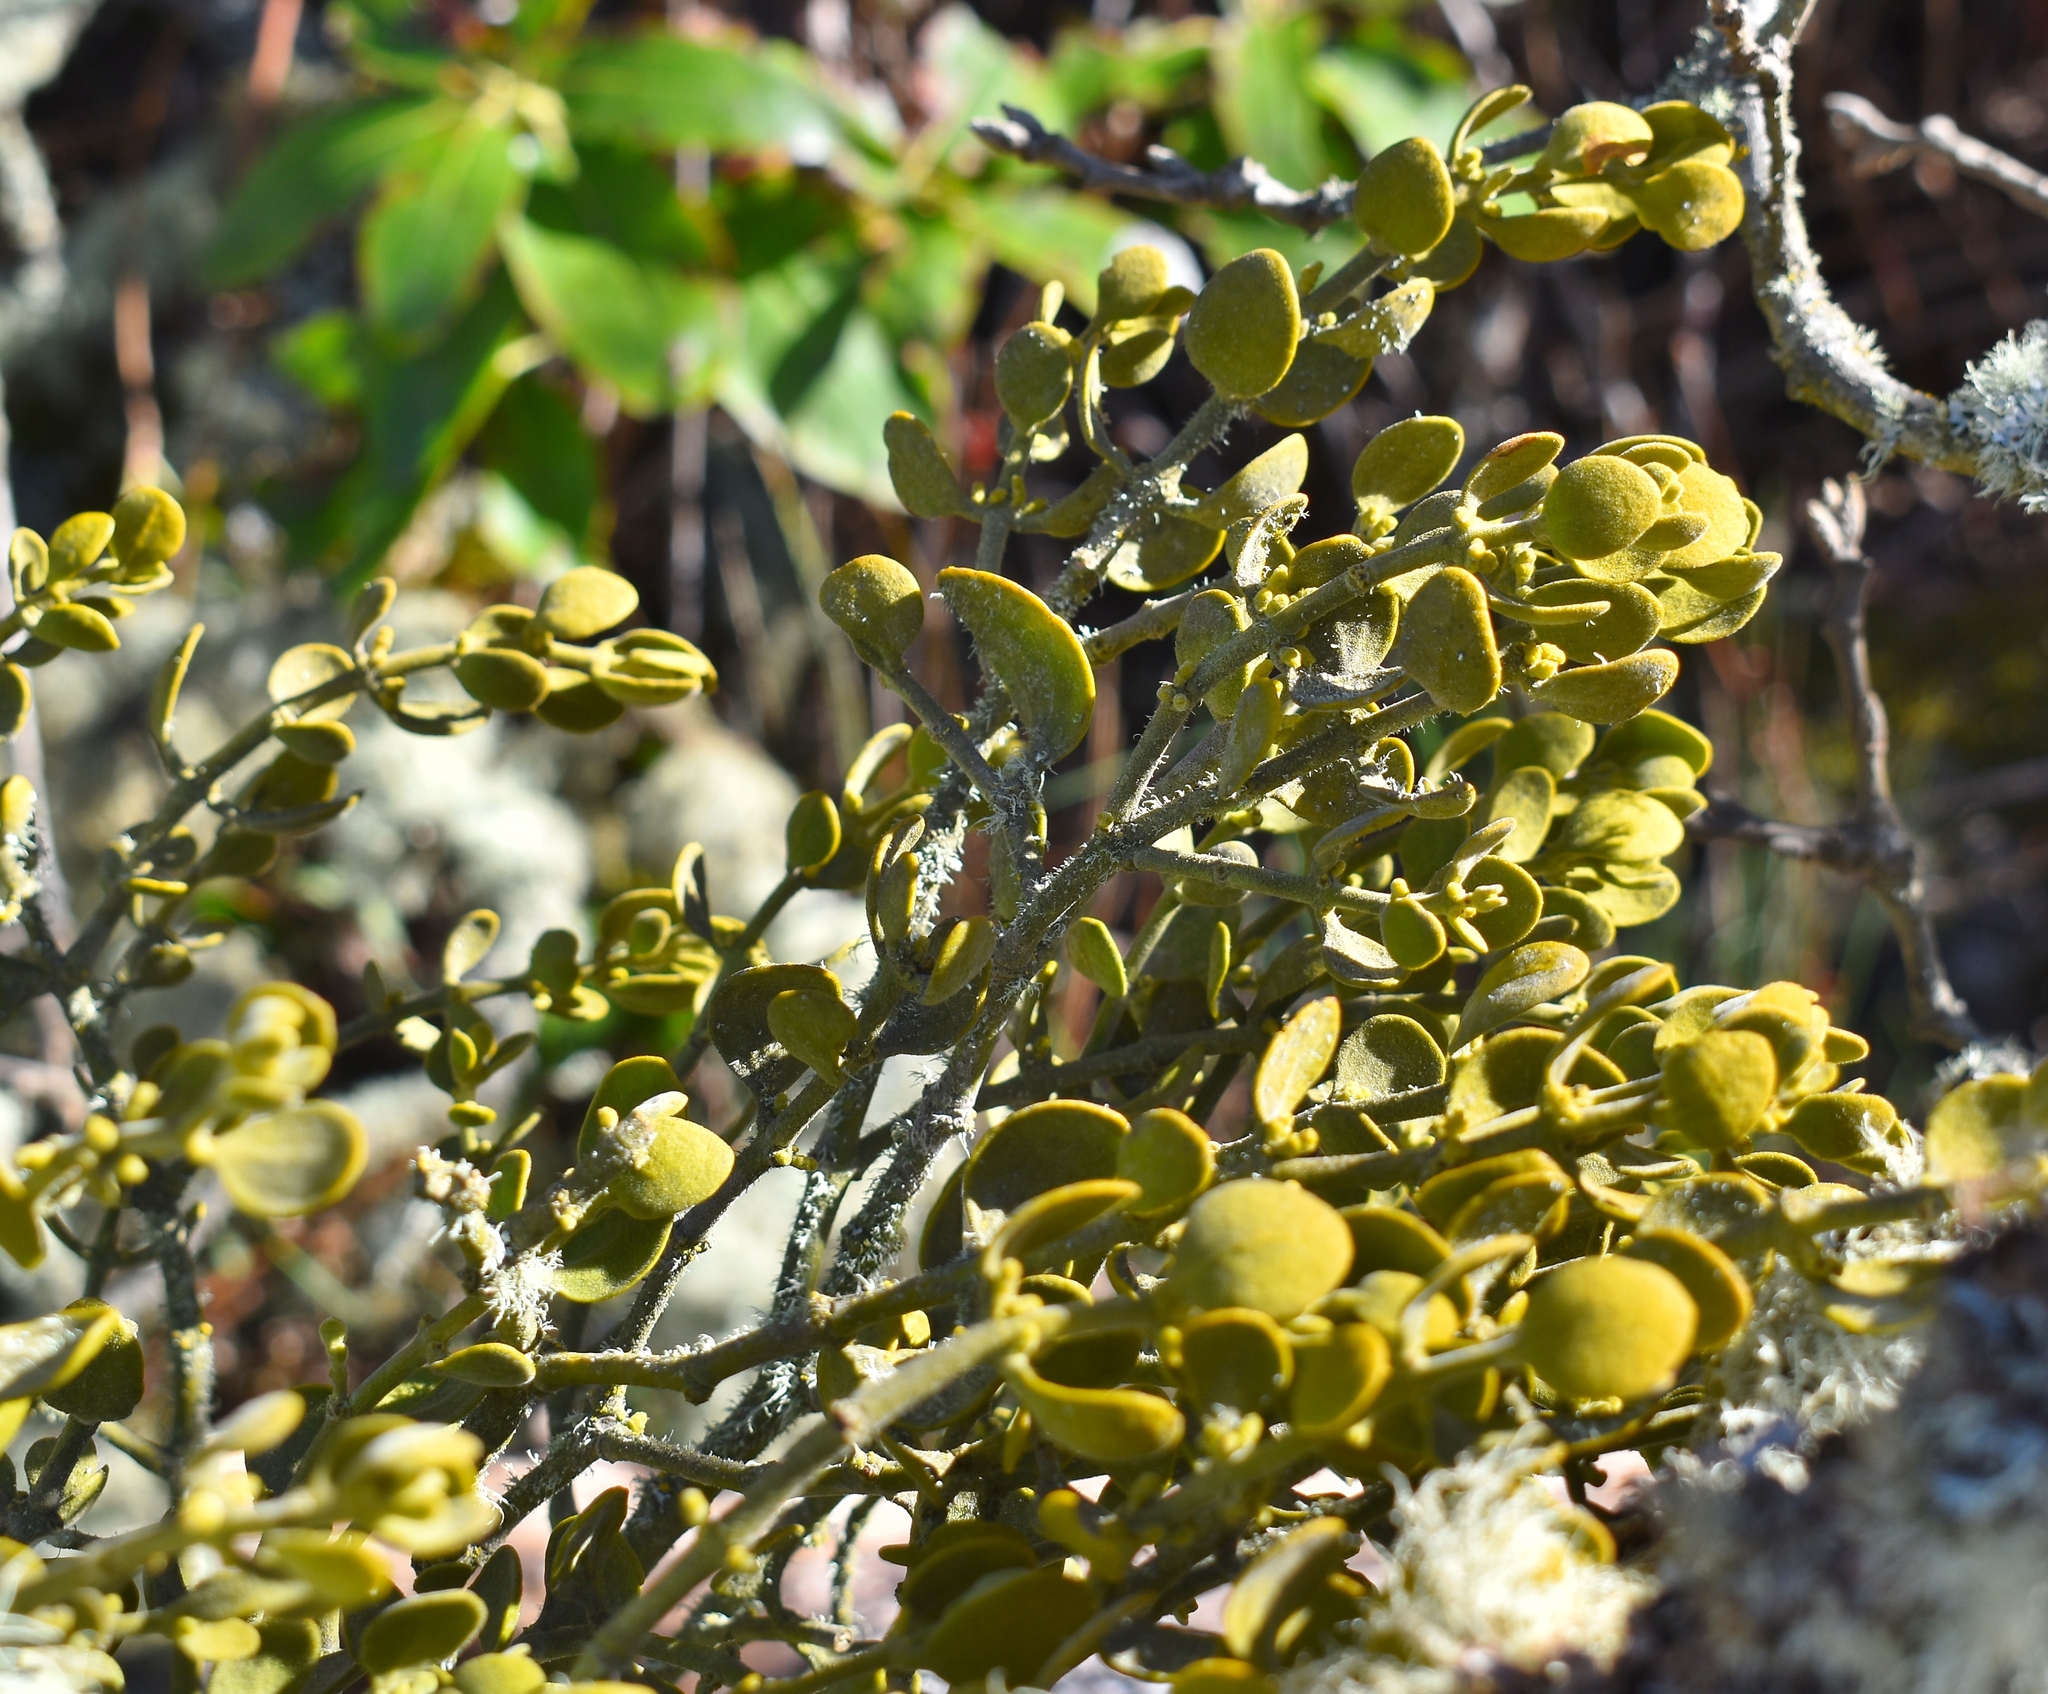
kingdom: Plantae
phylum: Tracheophyta
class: Magnoliopsida
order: Santalales
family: Viscaceae
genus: Phoradendron
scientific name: Phoradendron leucarpum
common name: Pacific mistletoe
